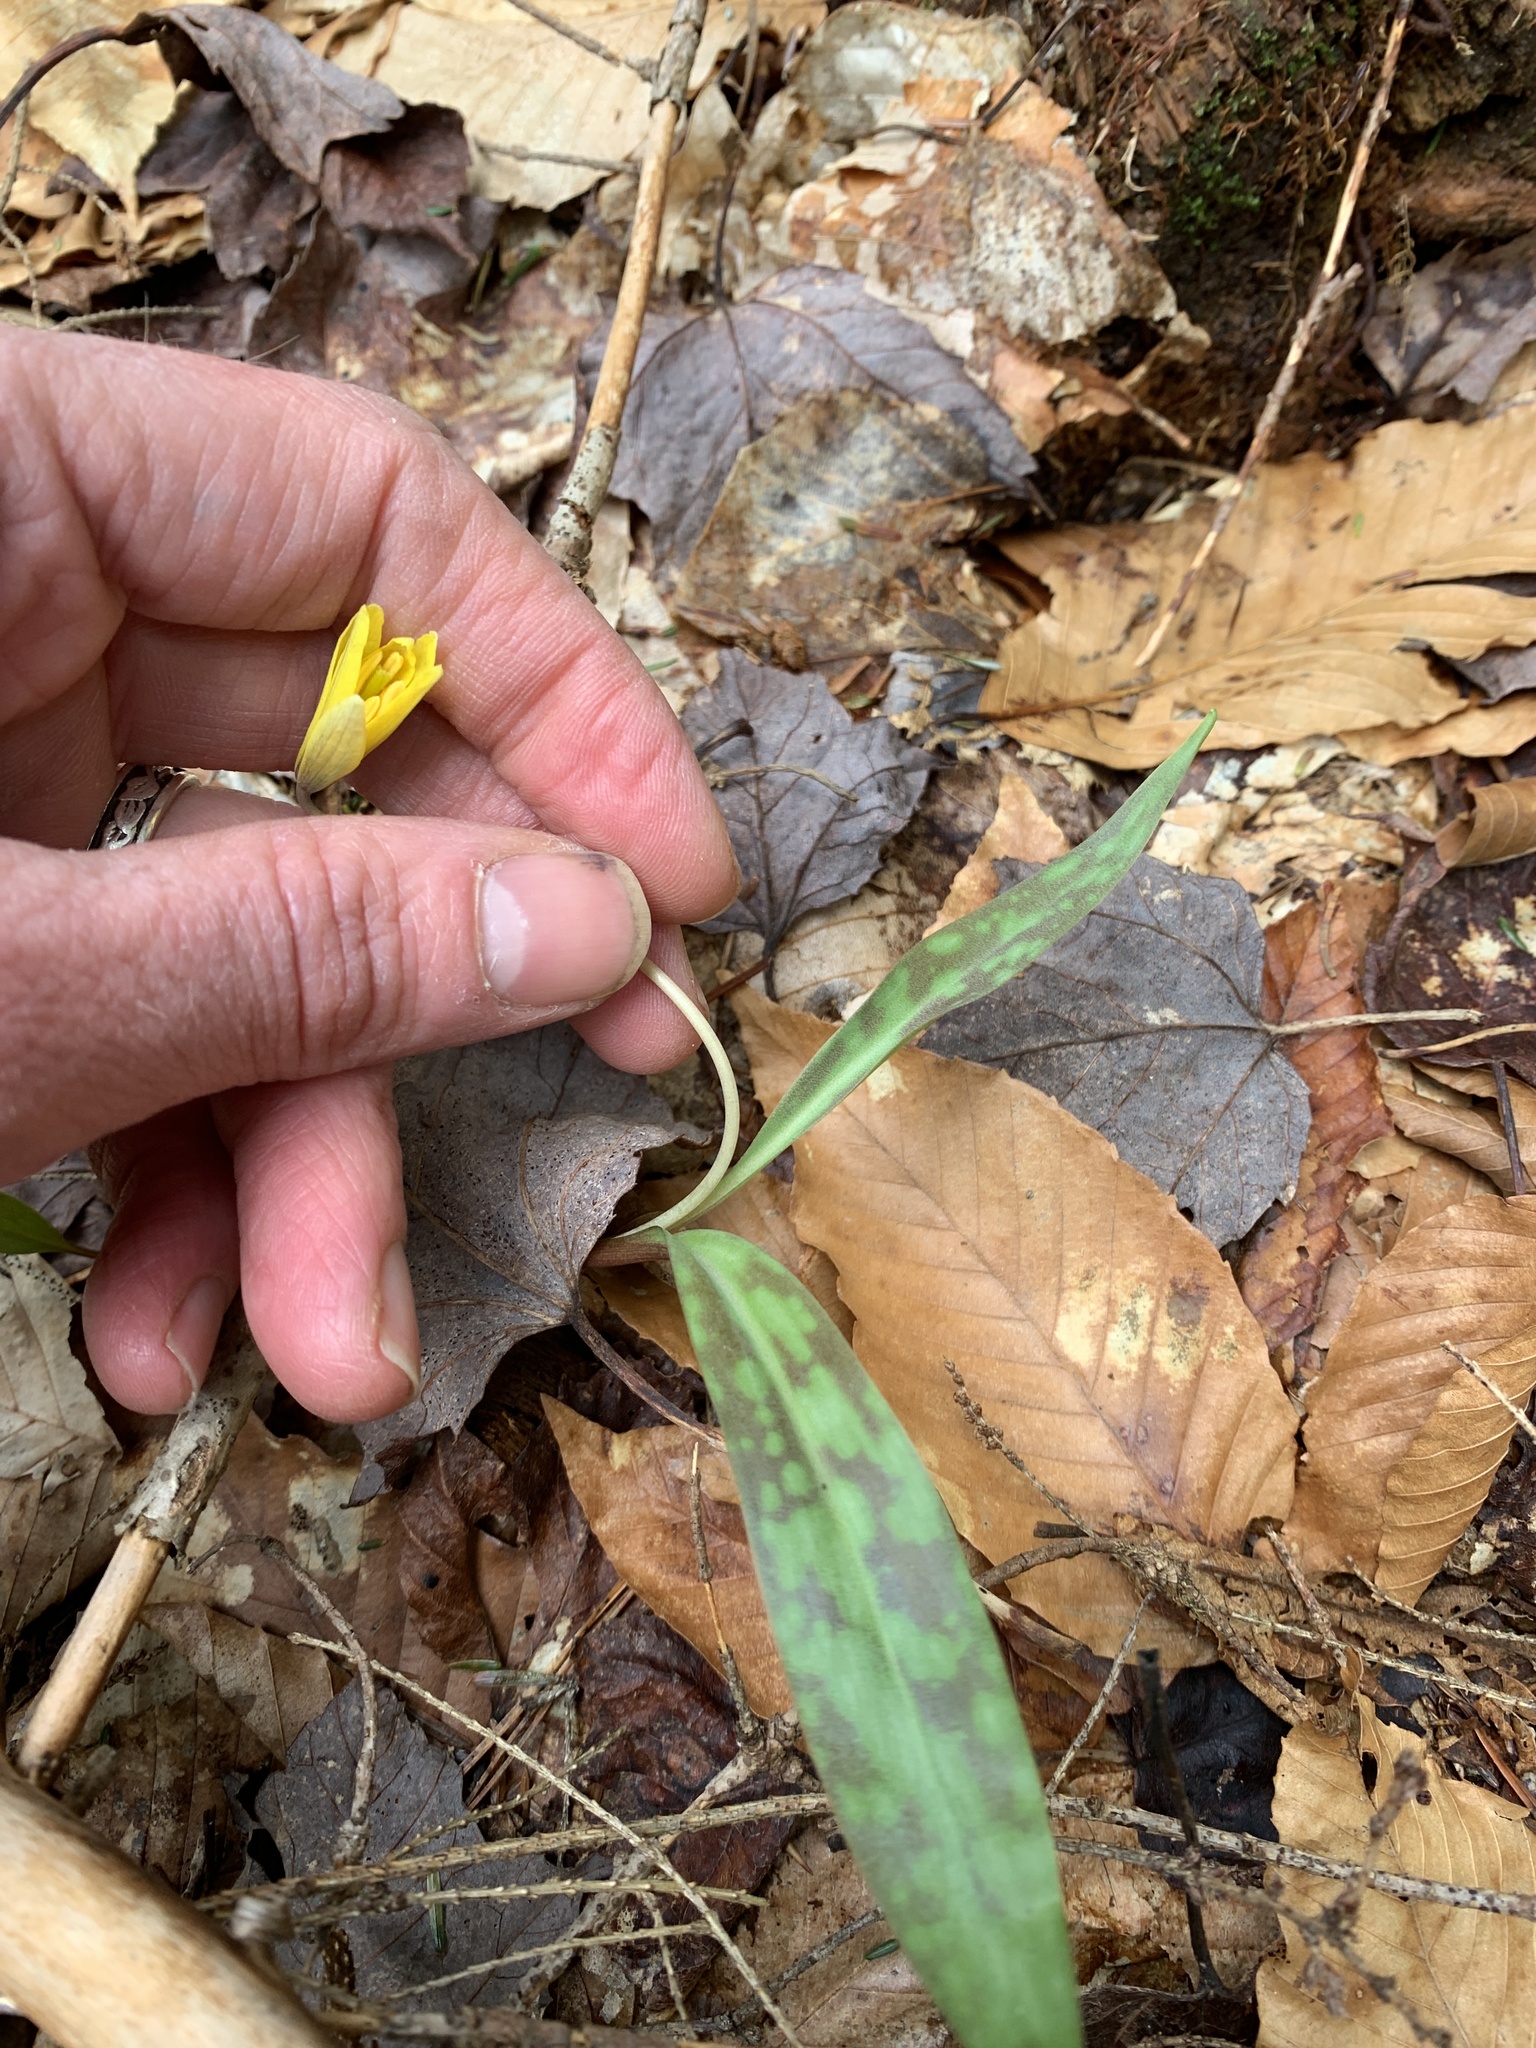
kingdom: Plantae
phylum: Tracheophyta
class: Liliopsida
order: Liliales
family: Liliaceae
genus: Erythronium
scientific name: Erythronium americanum
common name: Yellow adder's-tongue
